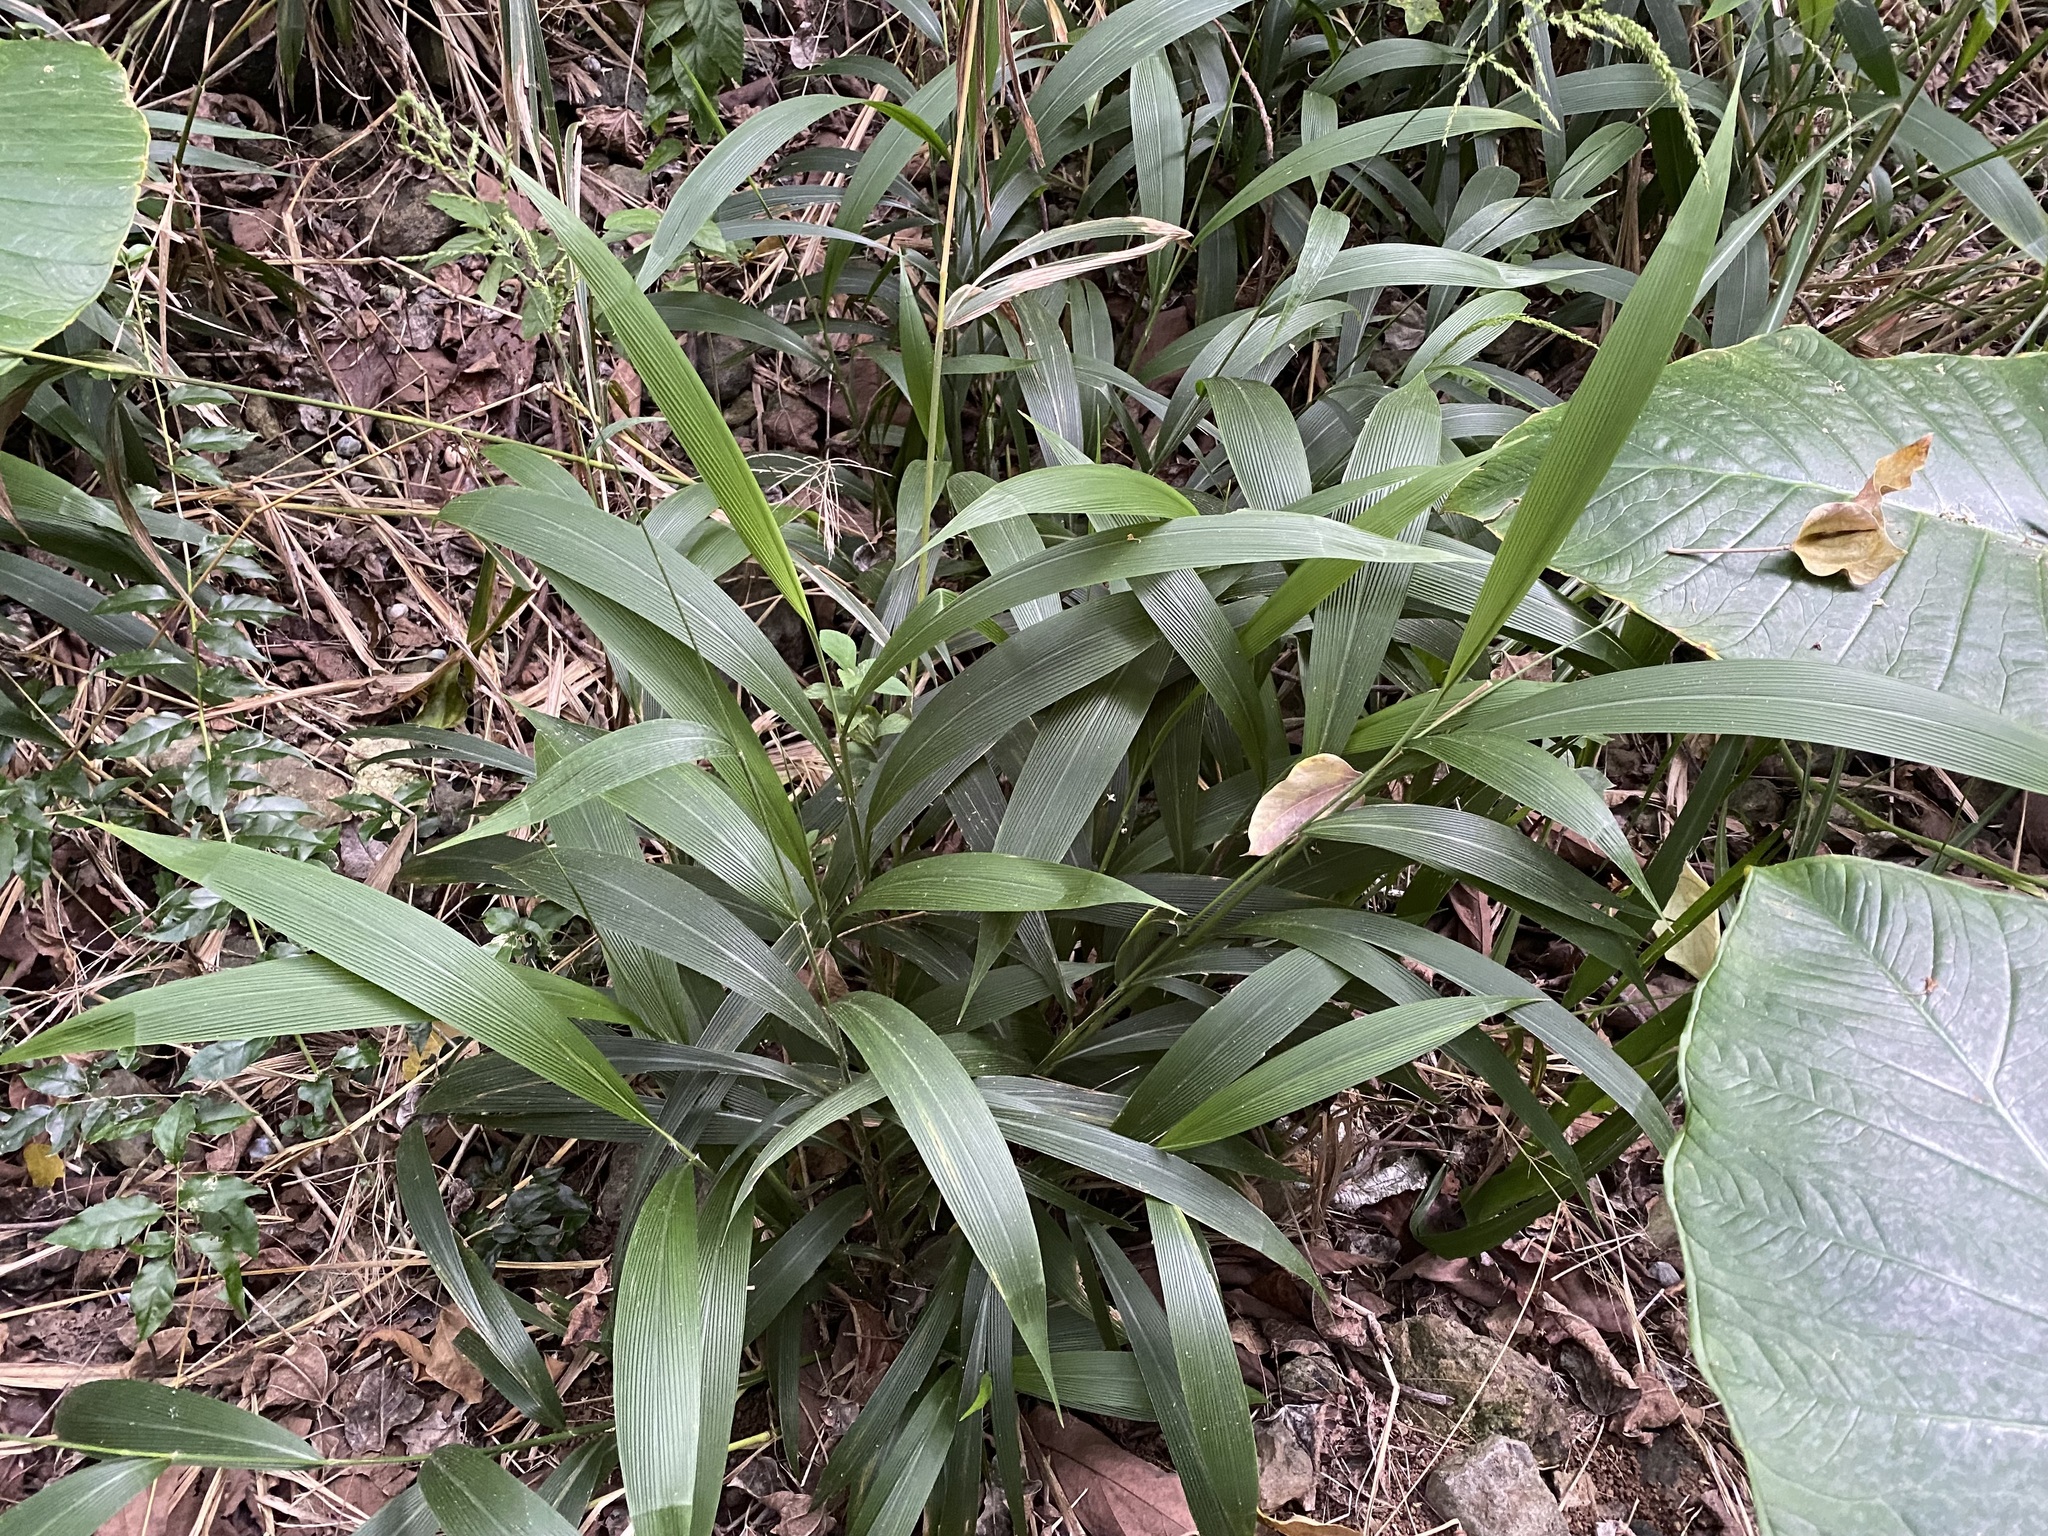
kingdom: Plantae
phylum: Tracheophyta
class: Liliopsida
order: Poales
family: Poaceae
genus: Setaria
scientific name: Setaria palmifolia
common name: Broadleaved bristlegrass
